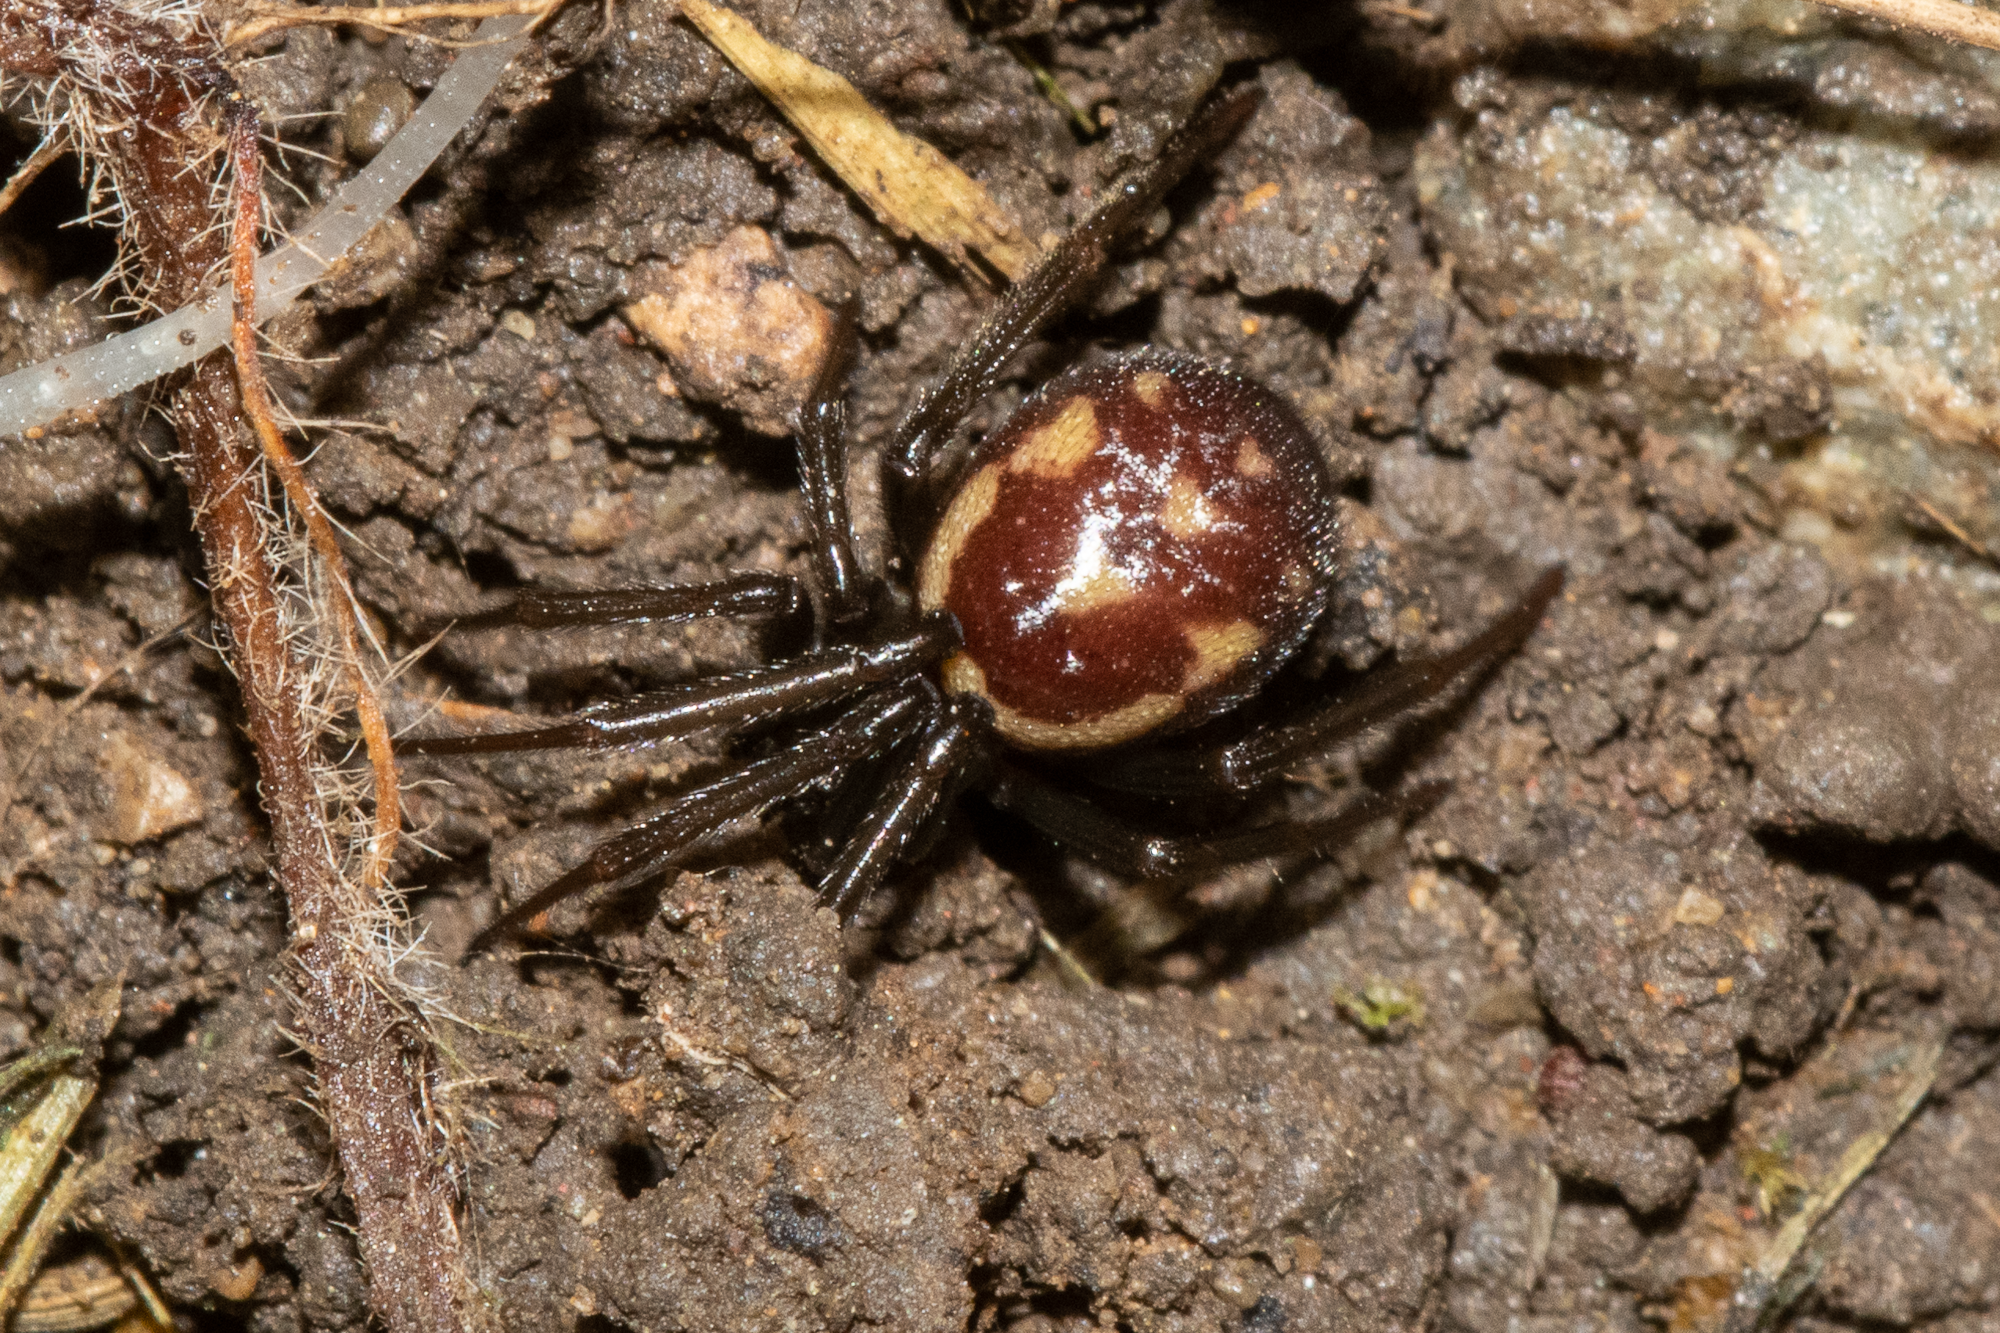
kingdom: Animalia
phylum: Arthropoda
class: Arachnida
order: Araneae
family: Theridiidae
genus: Steatoda
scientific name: Steatoda grossa
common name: False black widow
